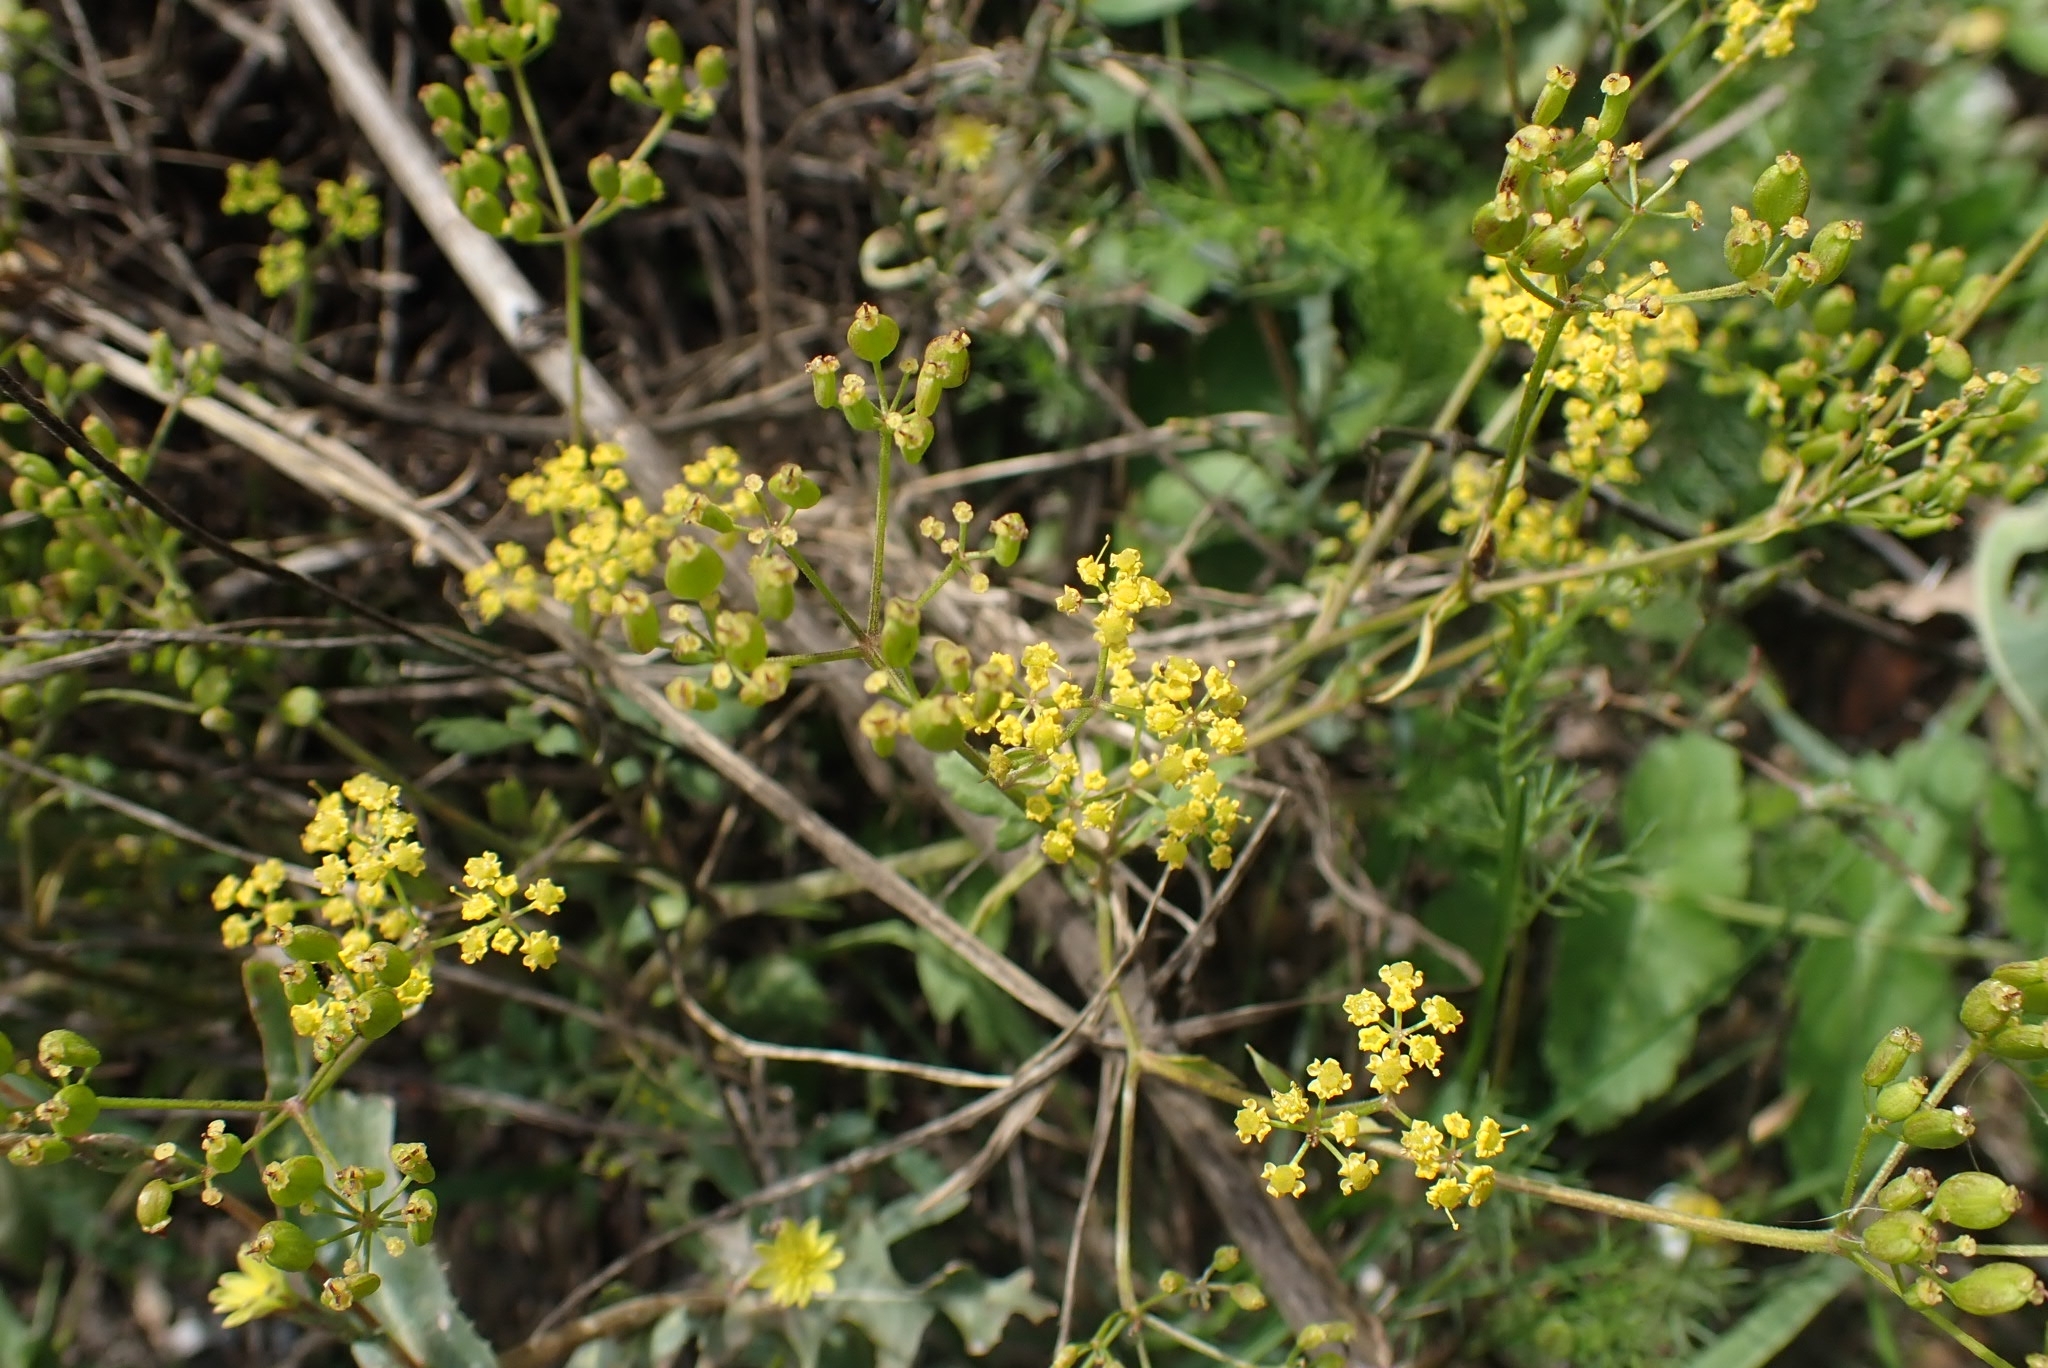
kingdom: Plantae
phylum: Tracheophyta
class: Magnoliopsida
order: Apiales
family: Apiaceae
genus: Pastinaca
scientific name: Pastinaca sativa
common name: Wild parsnip
